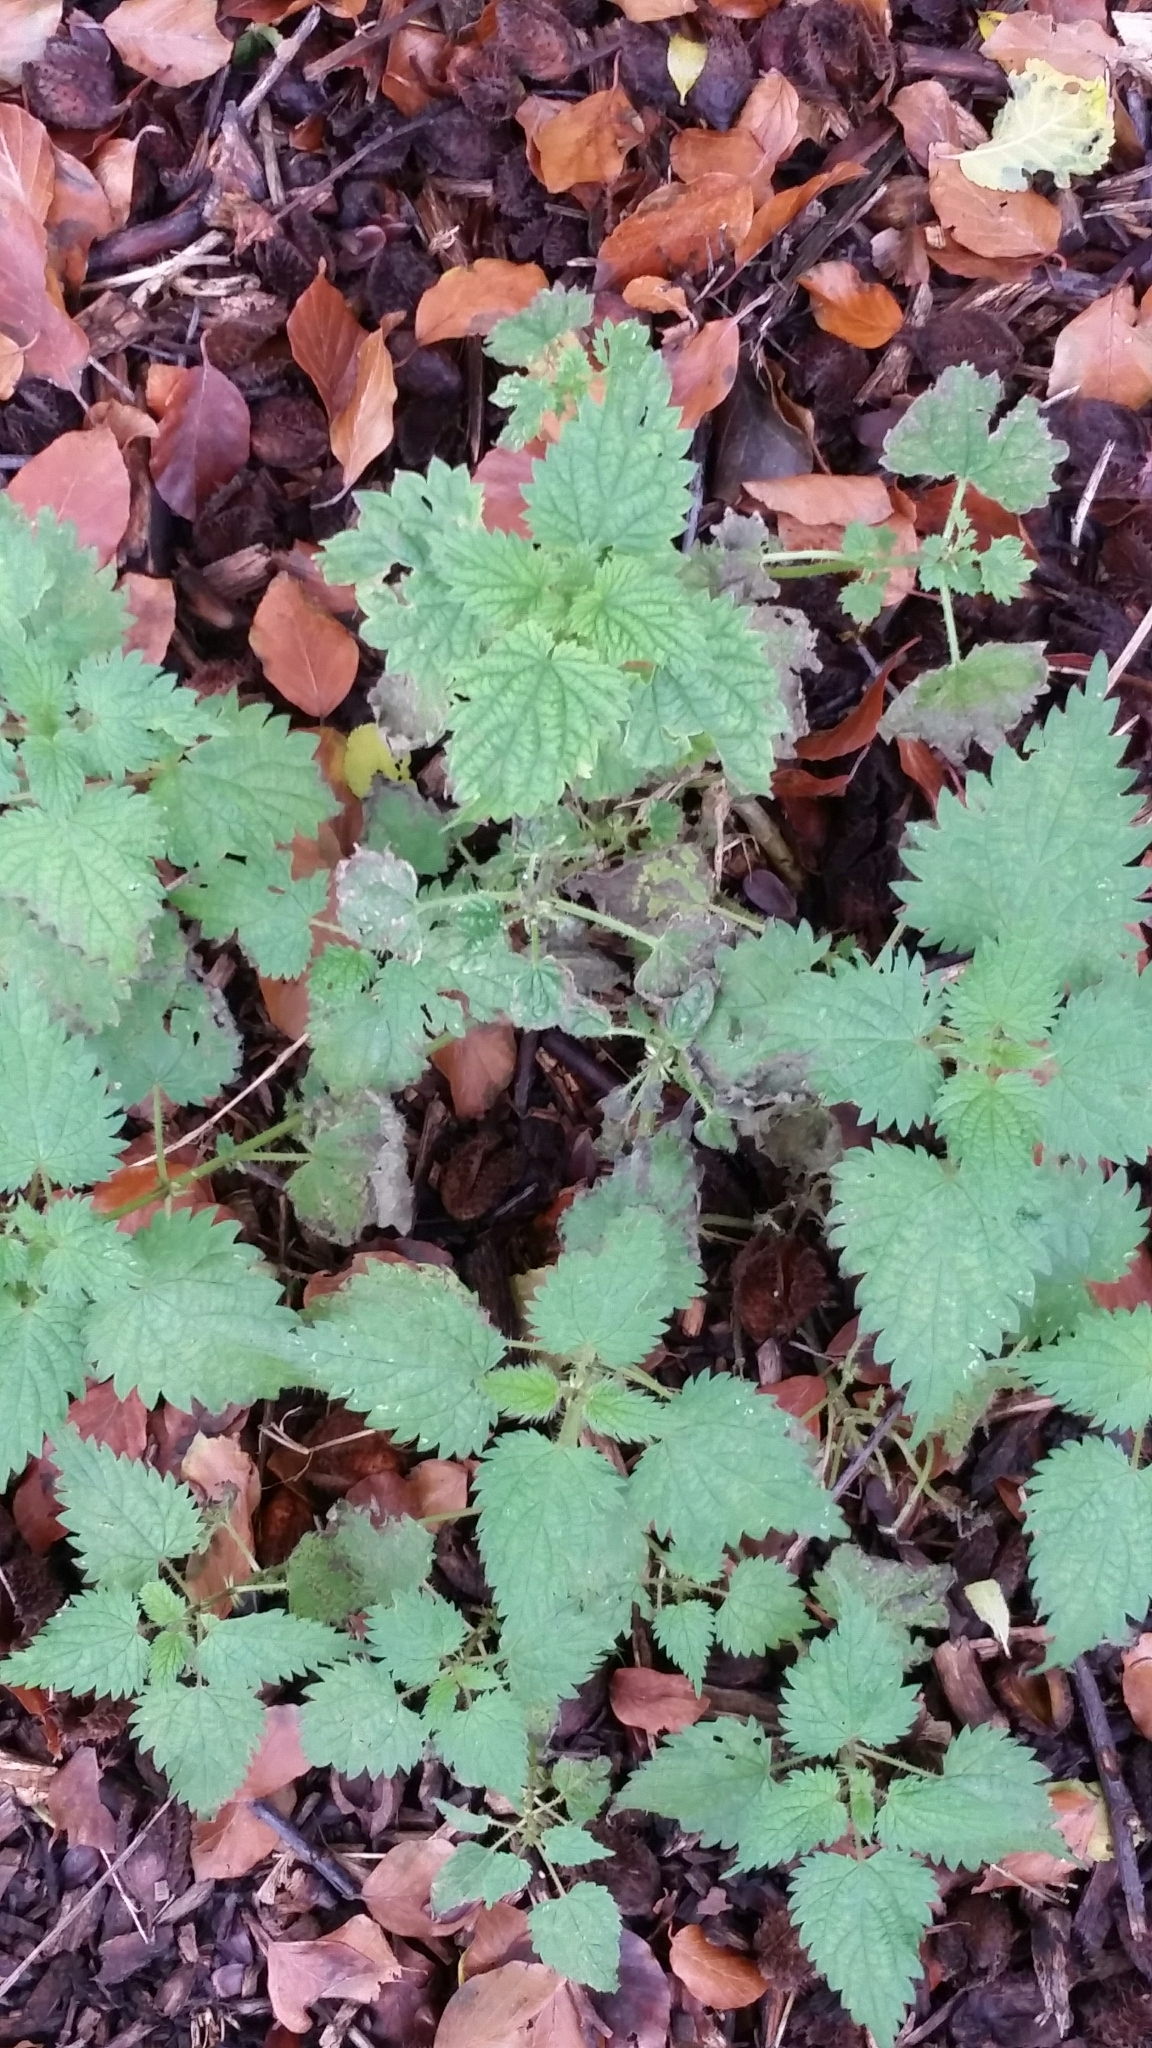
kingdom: Plantae
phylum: Tracheophyta
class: Magnoliopsida
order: Rosales
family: Urticaceae
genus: Urtica
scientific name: Urtica dioica
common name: Common nettle
